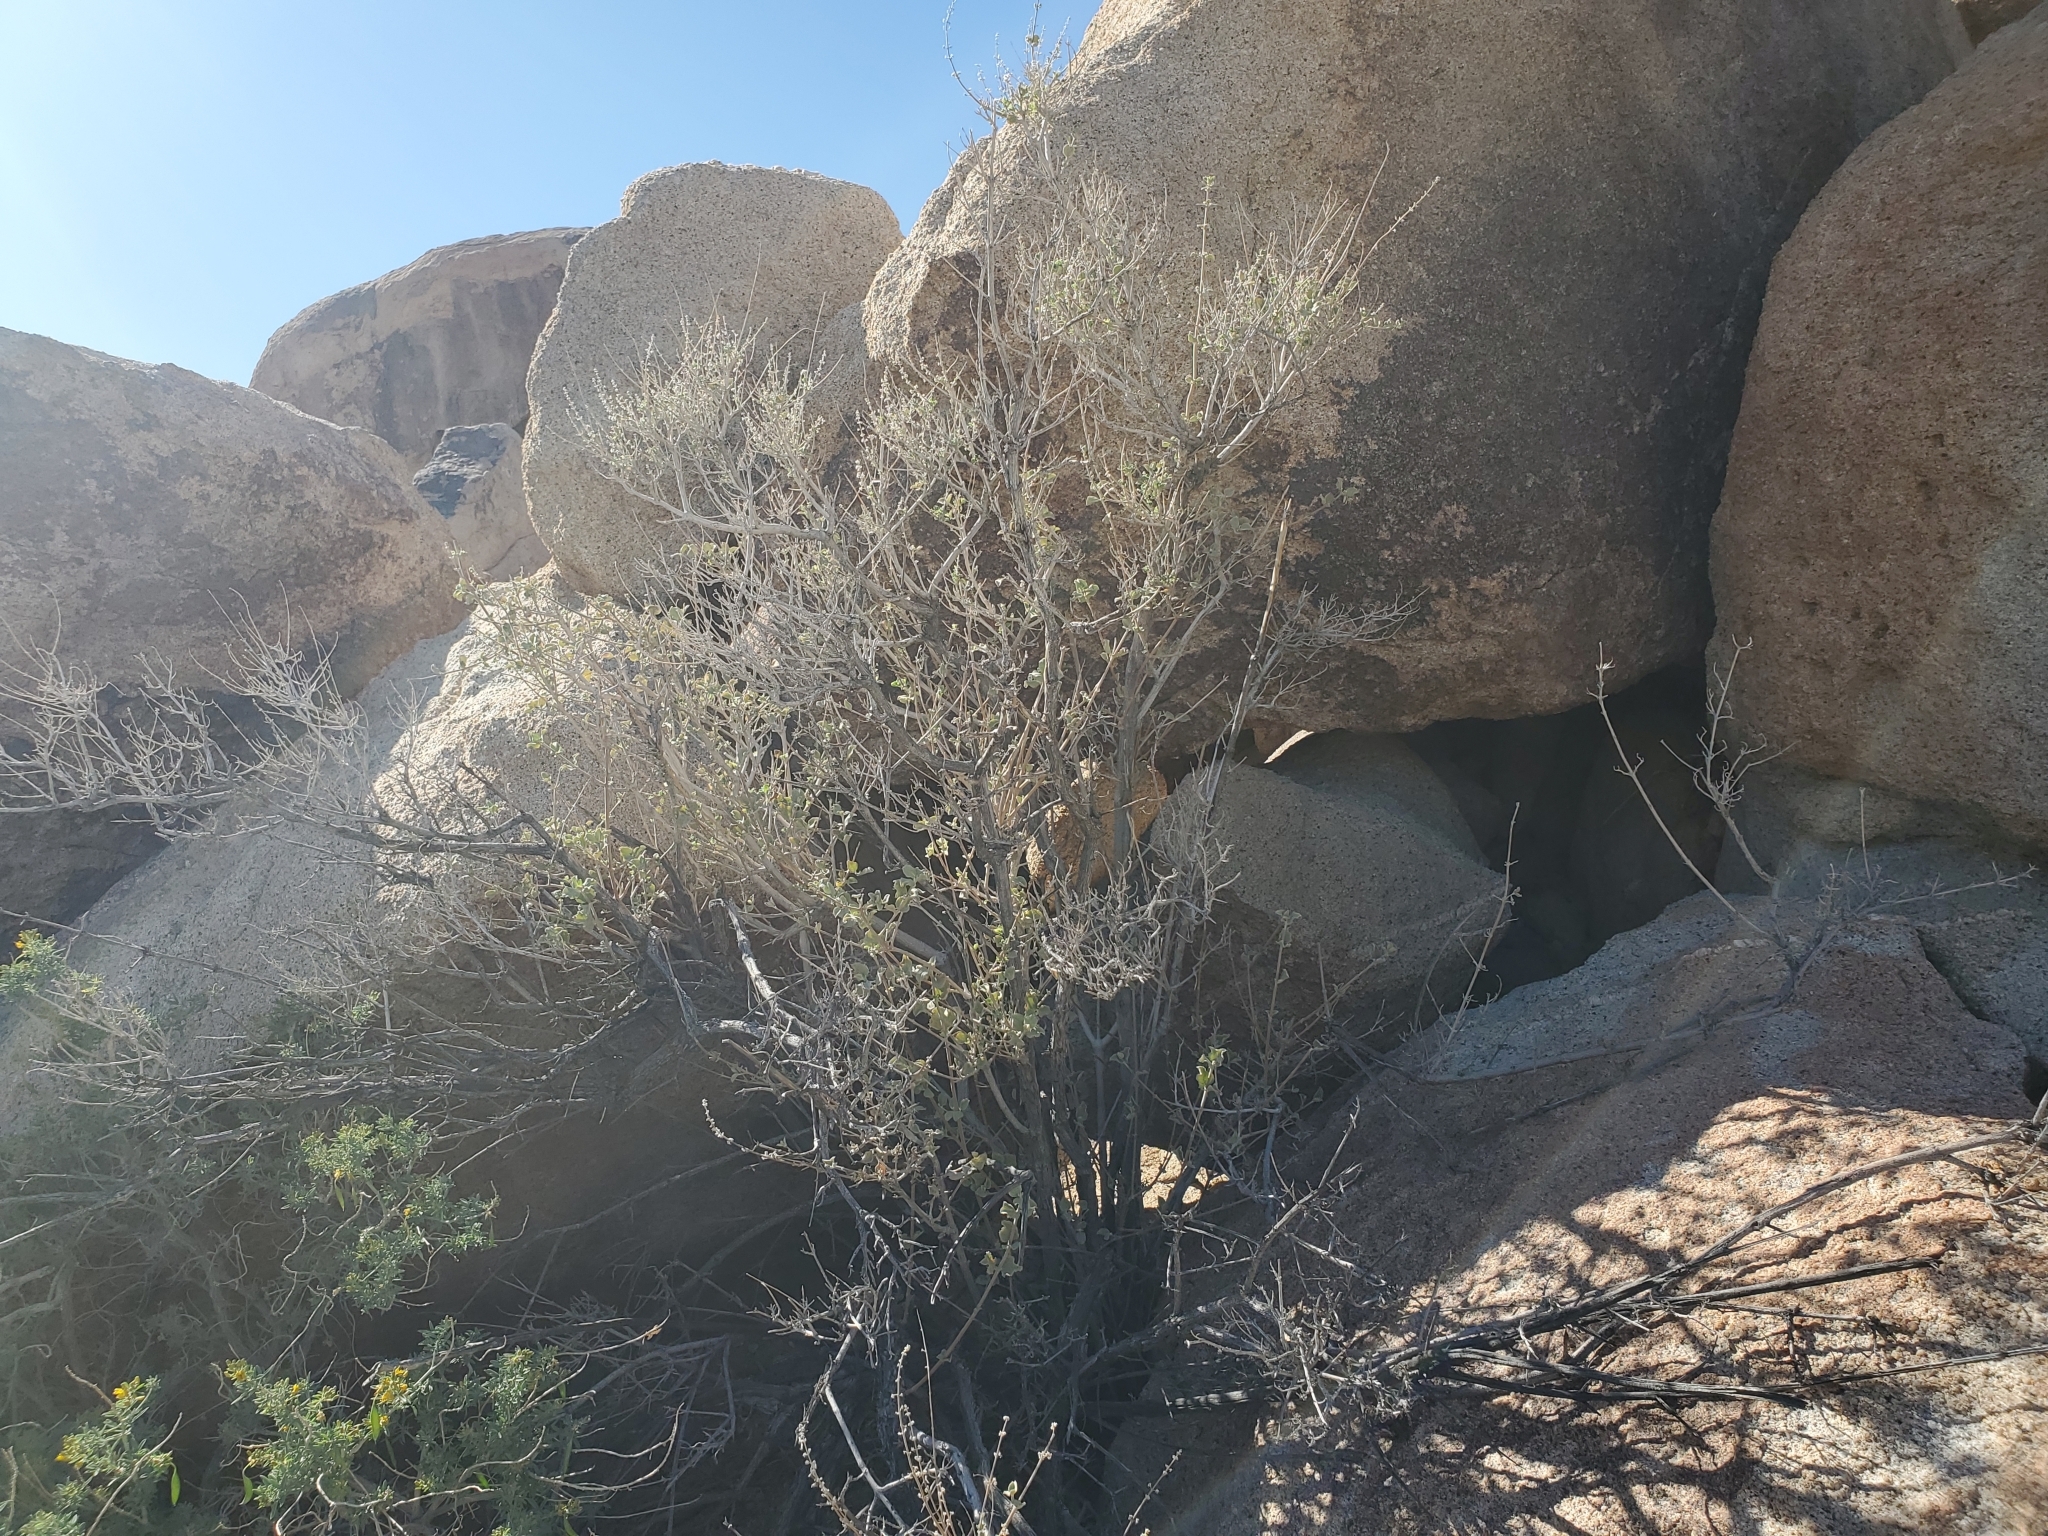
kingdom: Plantae
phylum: Tracheophyta
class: Magnoliopsida
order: Lamiales
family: Lamiaceae
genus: Condea
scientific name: Condea emoryi
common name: Chia
